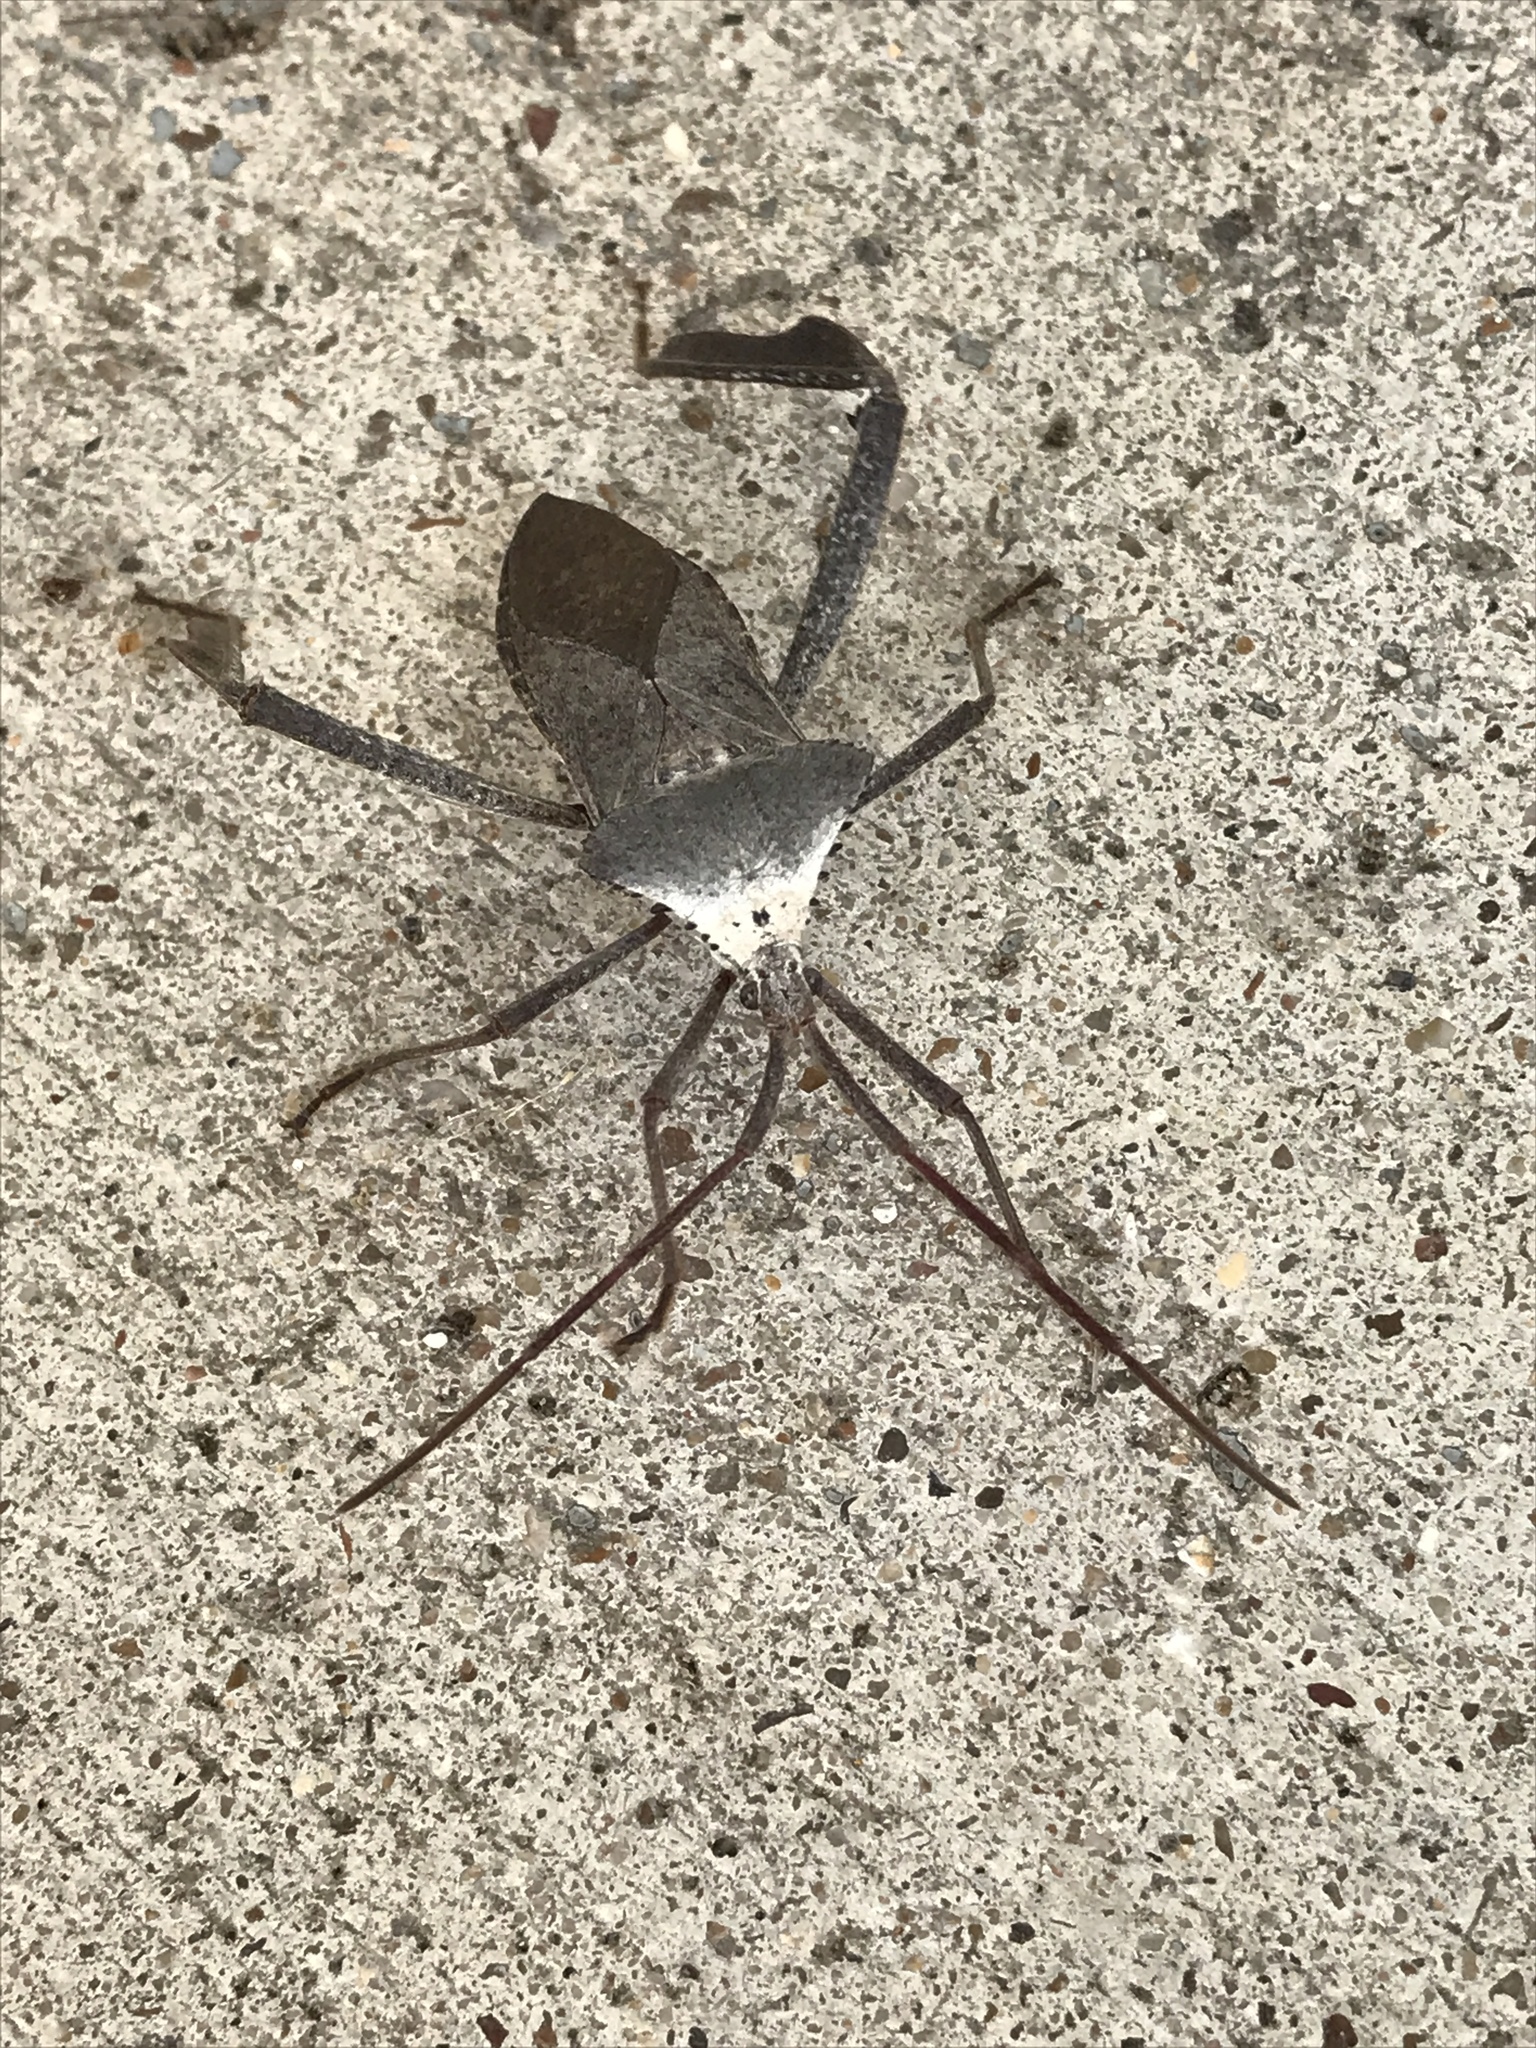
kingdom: Animalia
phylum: Arthropoda
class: Insecta
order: Hemiptera
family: Coreidae
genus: Acanthocephala
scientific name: Acanthocephala declivis
